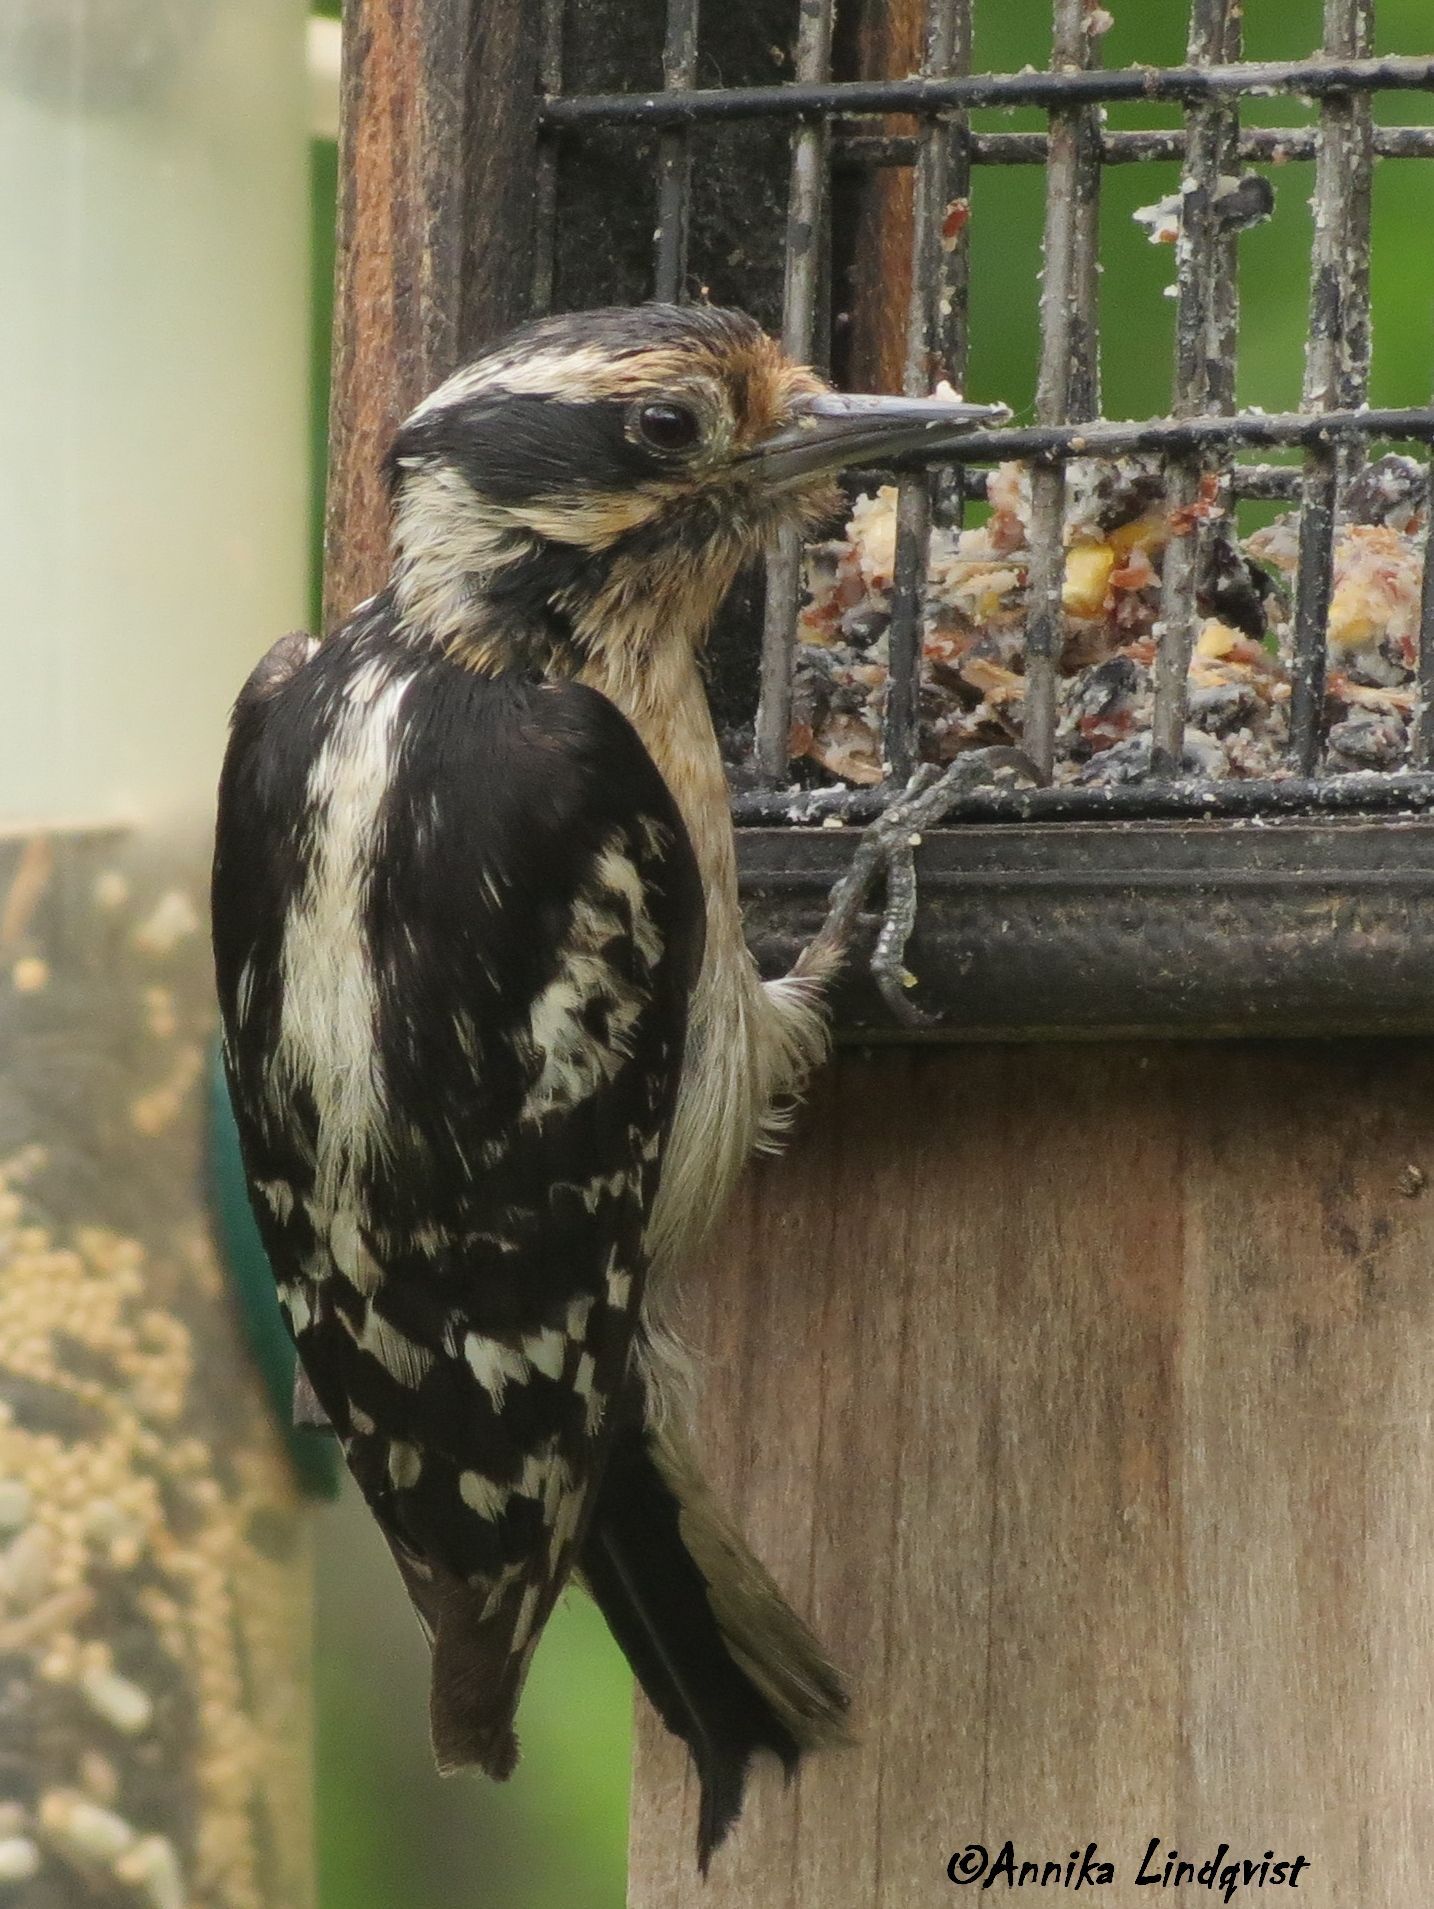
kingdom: Animalia
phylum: Chordata
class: Aves
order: Piciformes
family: Picidae
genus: Dryobates
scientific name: Dryobates pubescens
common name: Downy woodpecker
